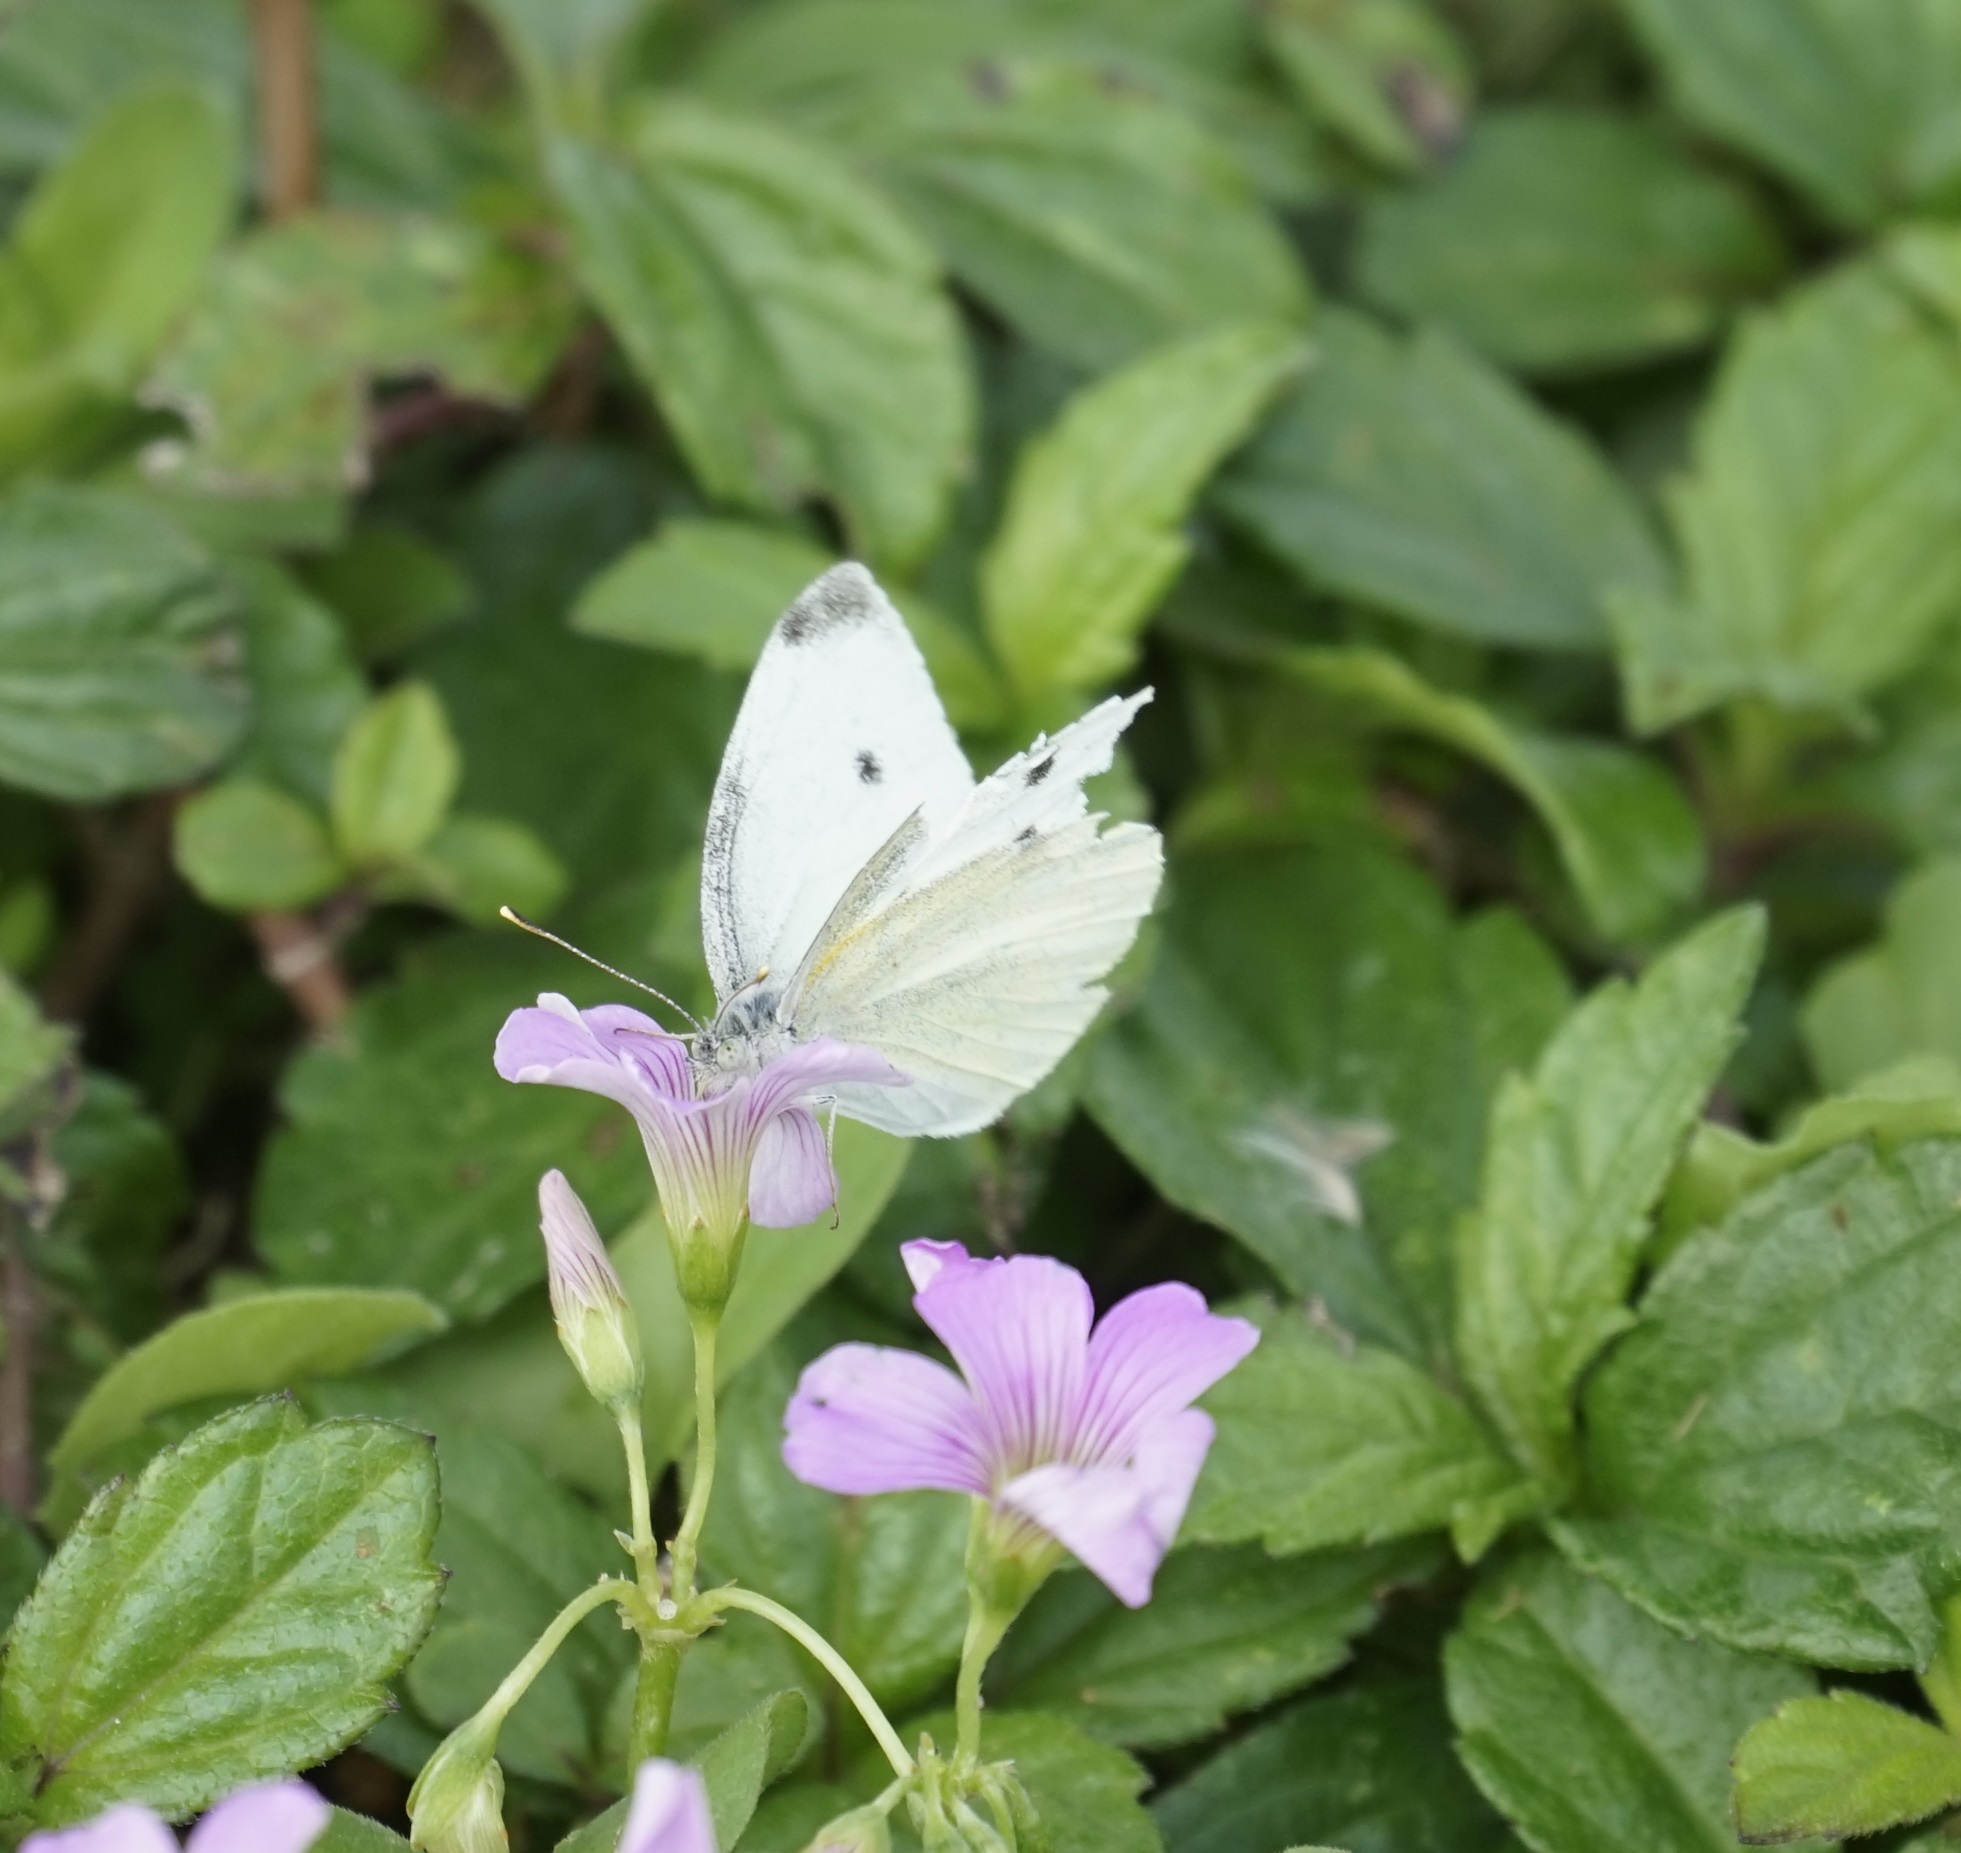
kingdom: Animalia
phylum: Arthropoda
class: Insecta
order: Lepidoptera
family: Pieridae
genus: Pieris
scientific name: Pieris rapae
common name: Small white
